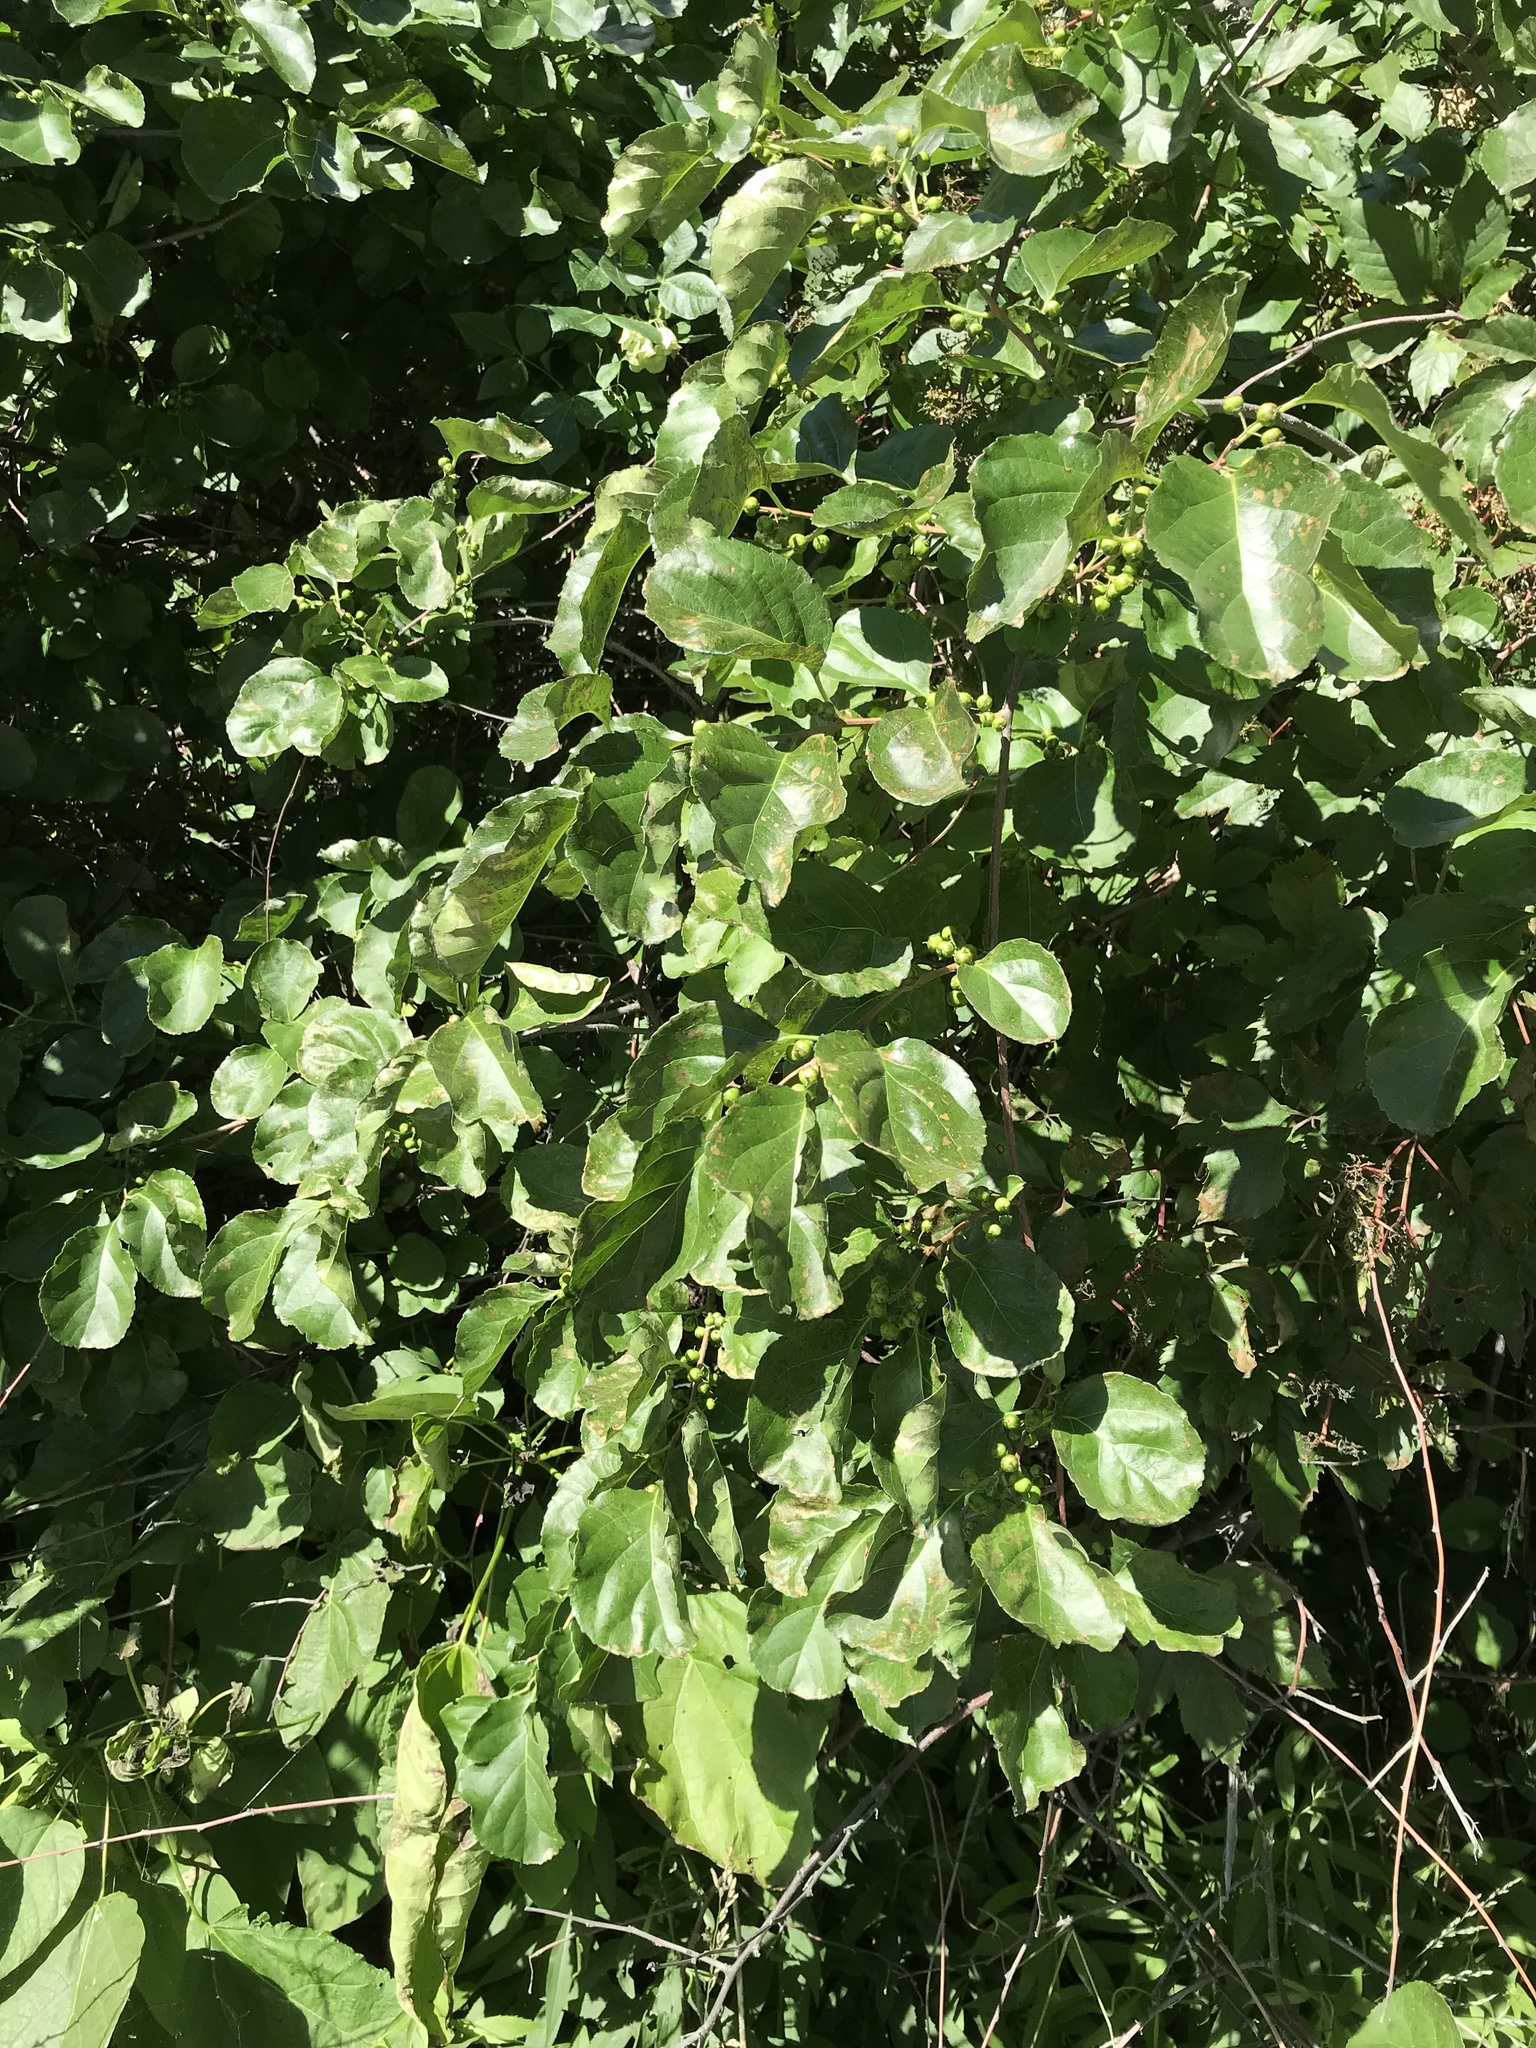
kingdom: Plantae
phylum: Tracheophyta
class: Magnoliopsida
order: Celastrales
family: Celastraceae
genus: Celastrus
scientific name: Celastrus orbiculatus
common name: Oriental bittersweet
